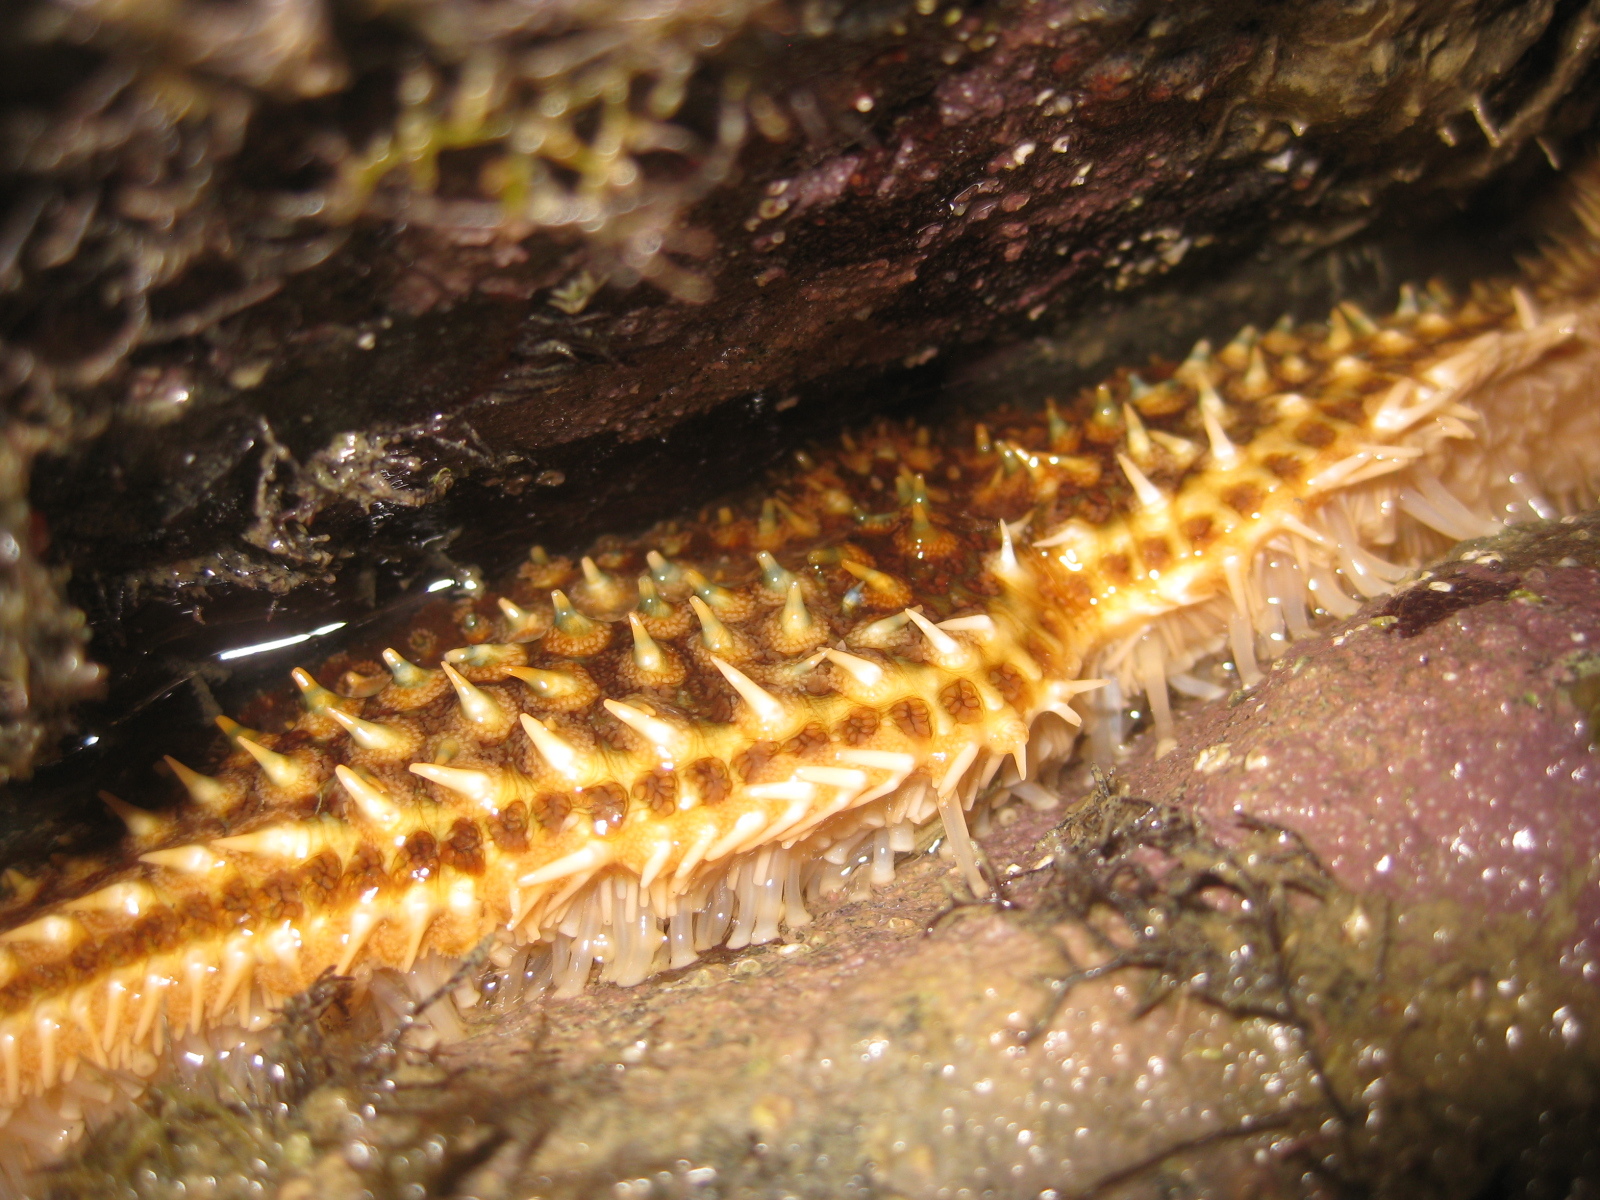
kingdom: Animalia
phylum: Echinodermata
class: Asteroidea
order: Forcipulatida
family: Asteriidae
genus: Coscinasterias
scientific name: Coscinasterias muricata
